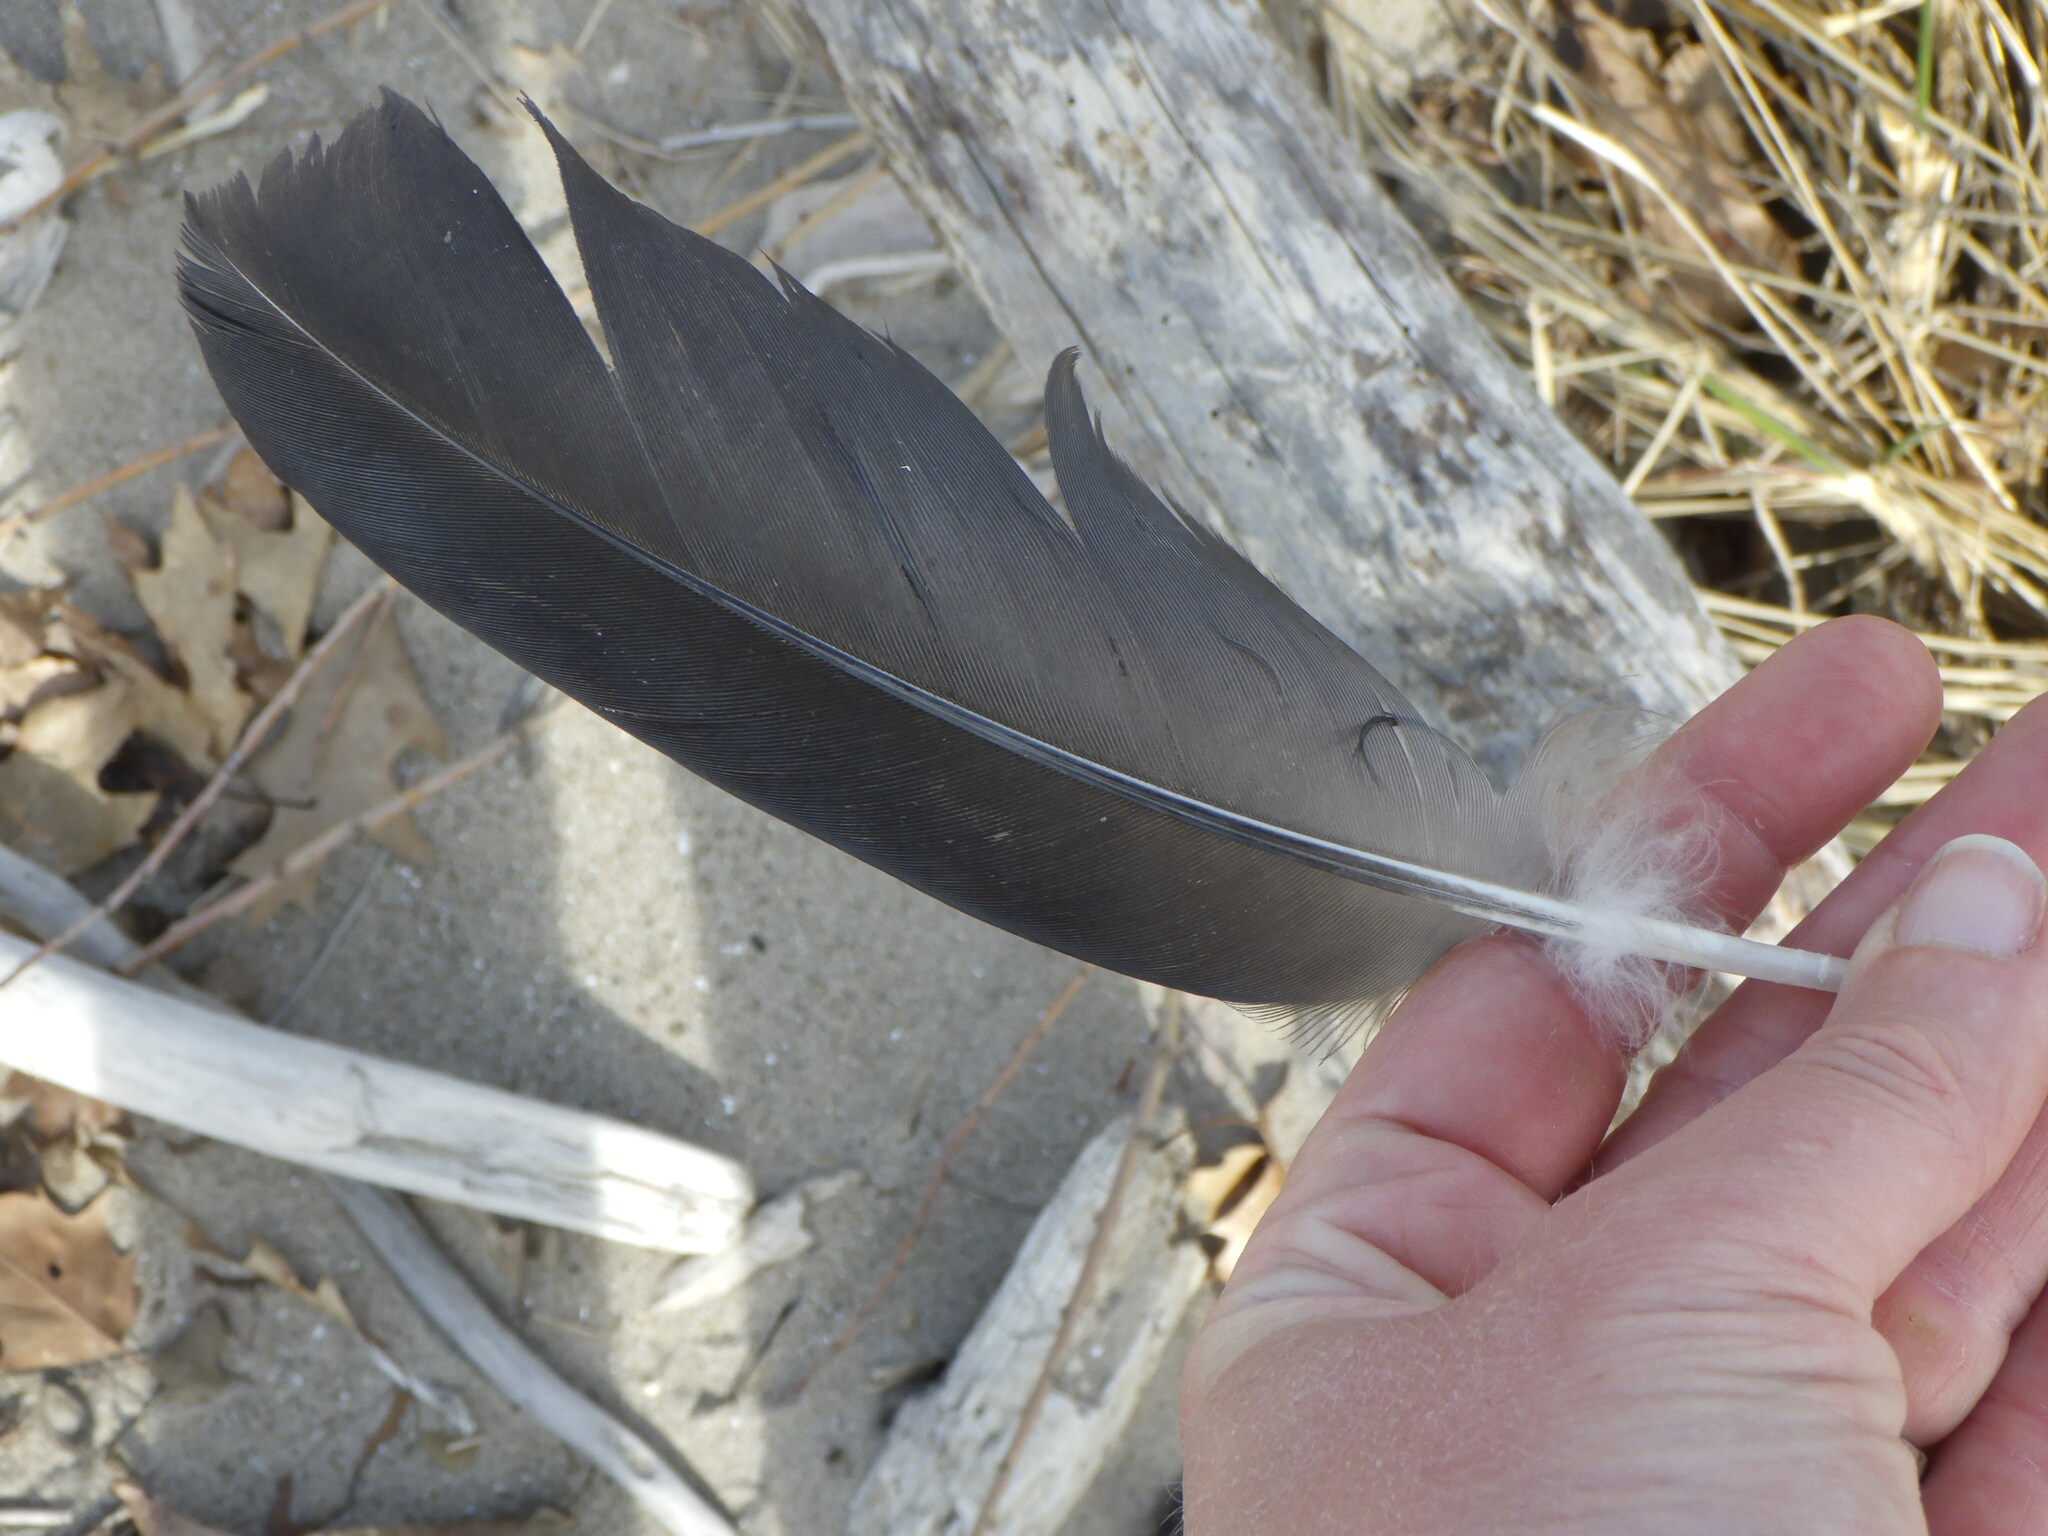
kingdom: Animalia
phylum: Chordata
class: Aves
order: Anseriformes
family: Anatidae
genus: Branta
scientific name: Branta canadensis
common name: Canada goose
